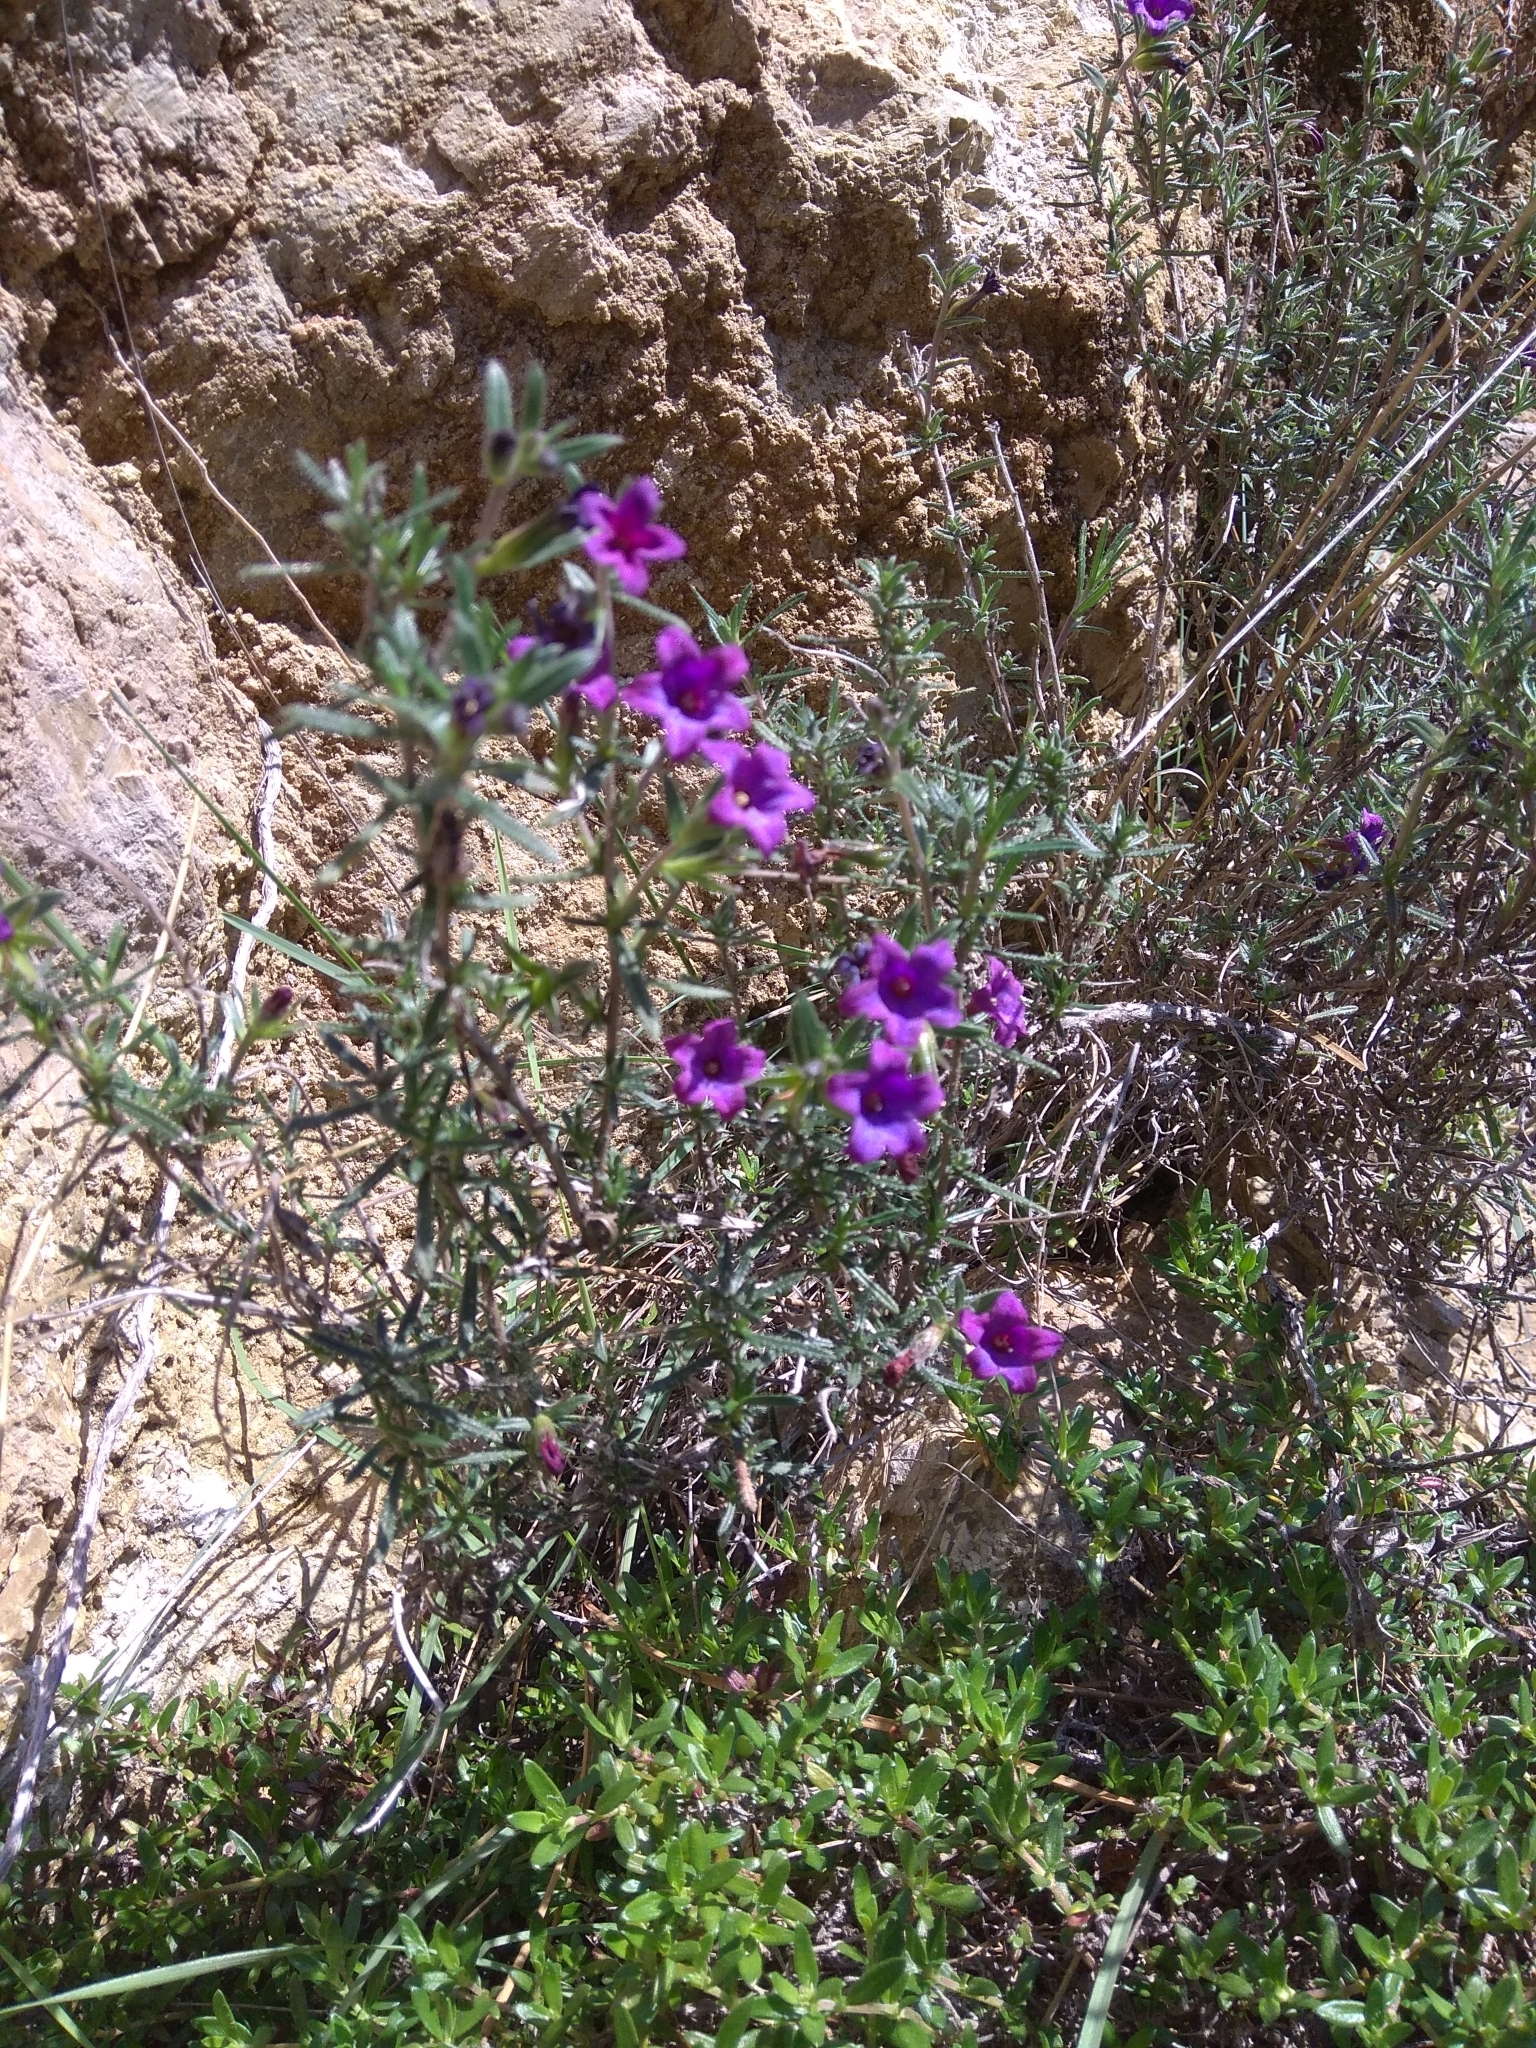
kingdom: Plantae
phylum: Tracheophyta
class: Magnoliopsida
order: Boraginales
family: Boraginaceae
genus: Glandora
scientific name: Glandora prostrata
